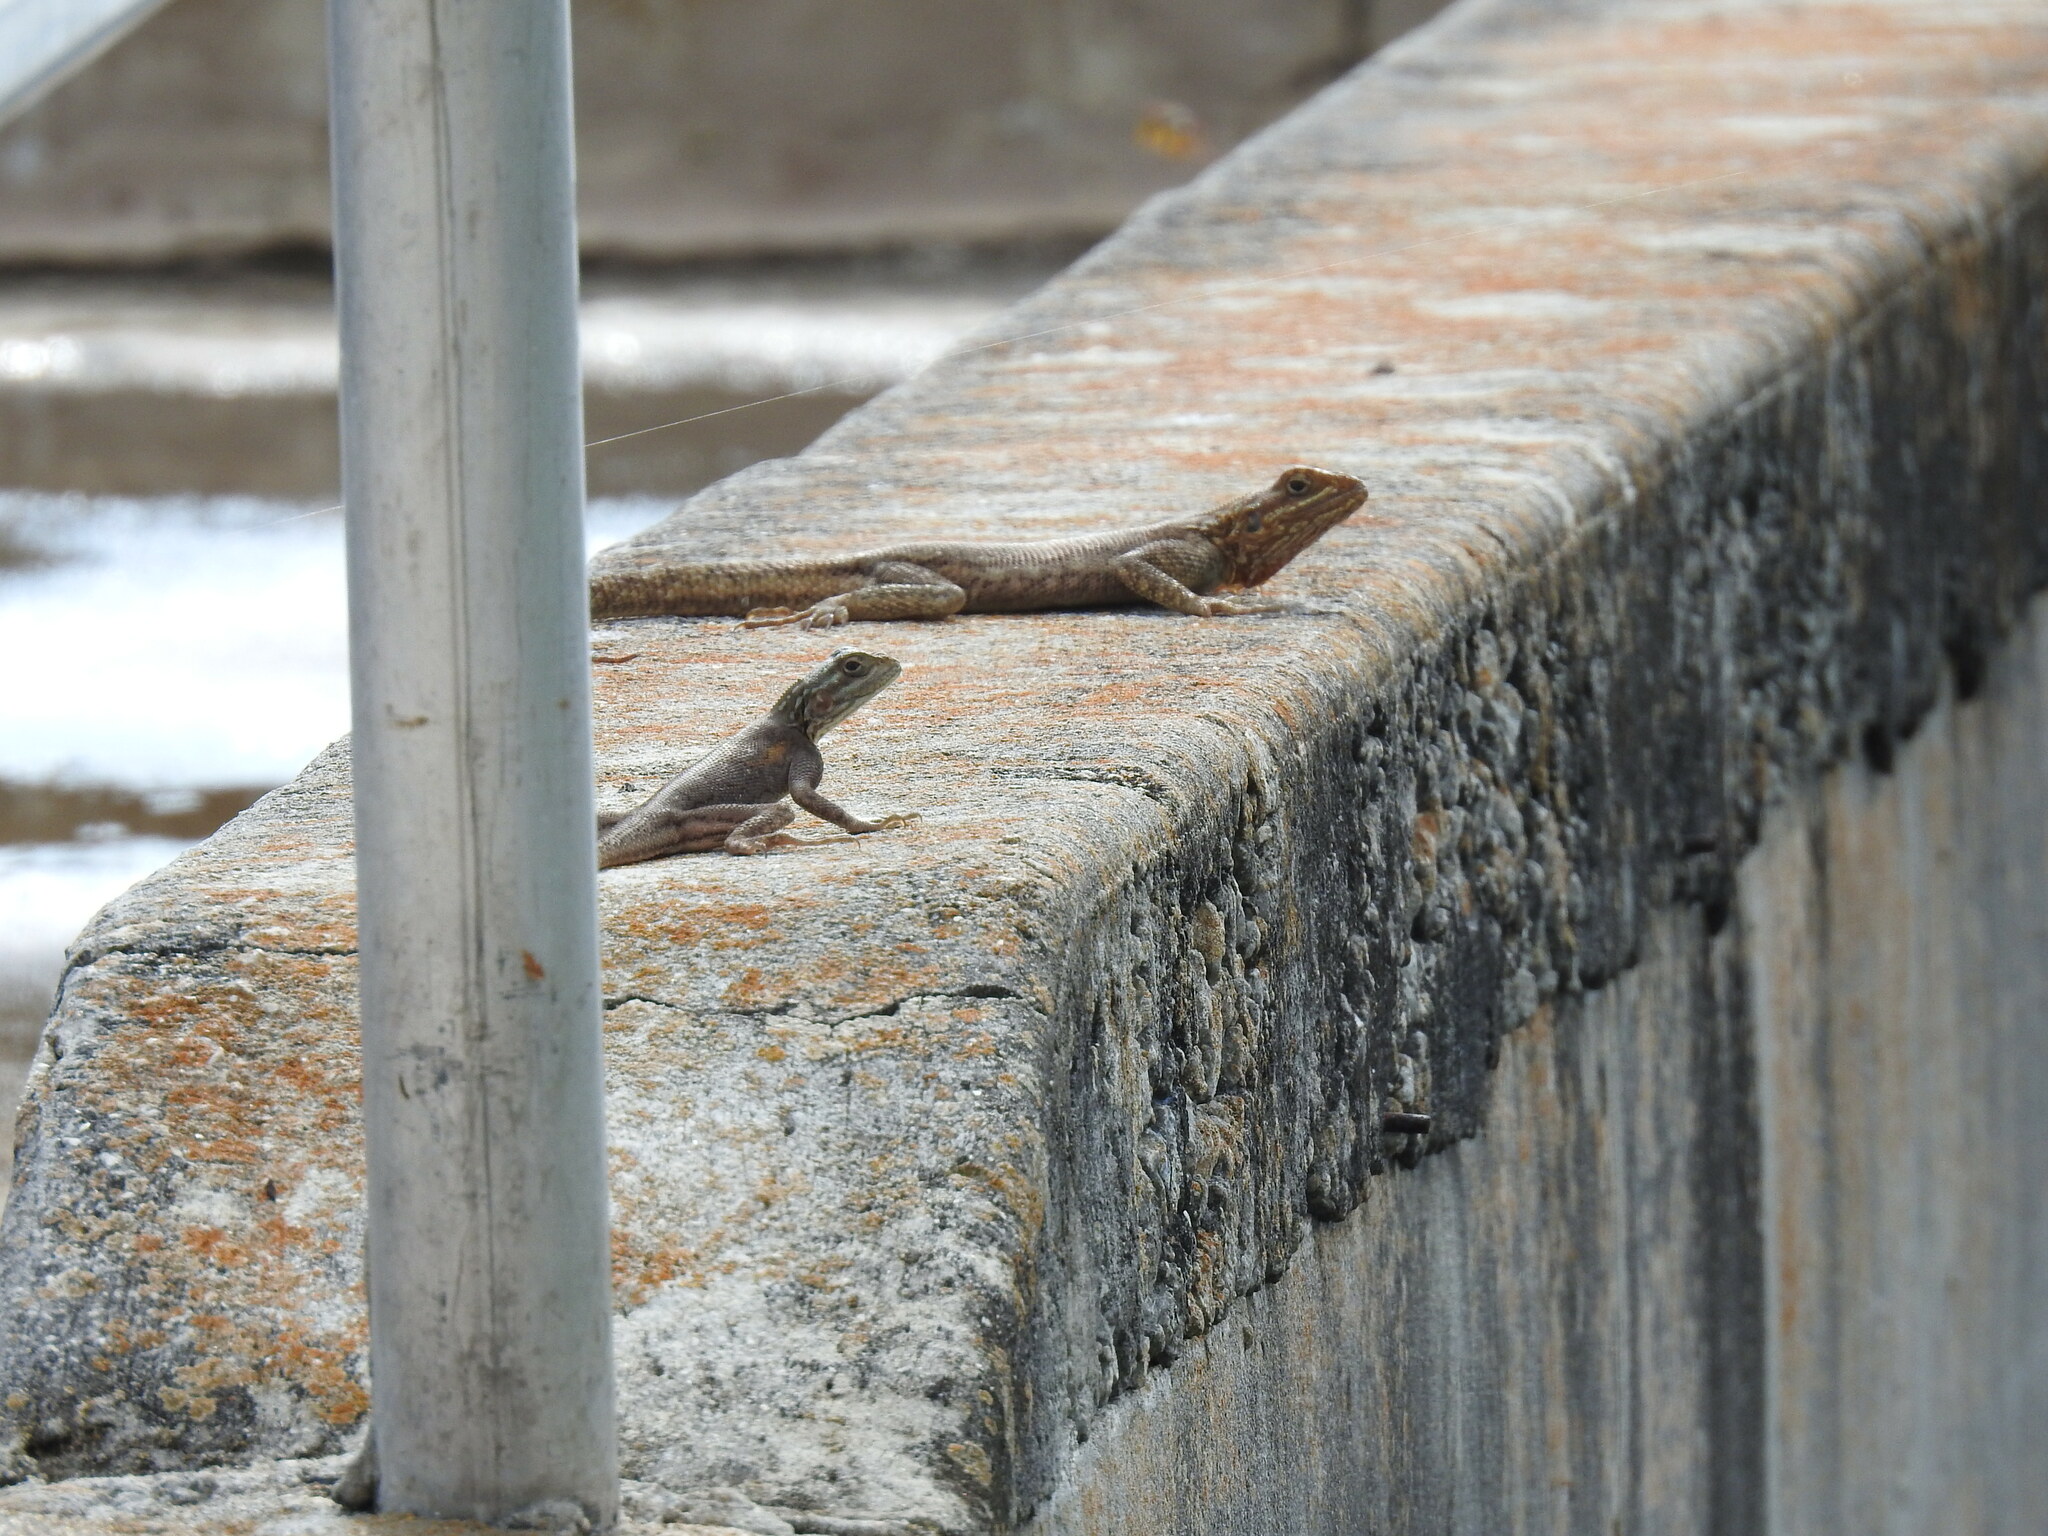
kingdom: Animalia
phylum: Chordata
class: Squamata
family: Agamidae
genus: Agama
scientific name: Agama picticauda
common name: Red-headed agama
